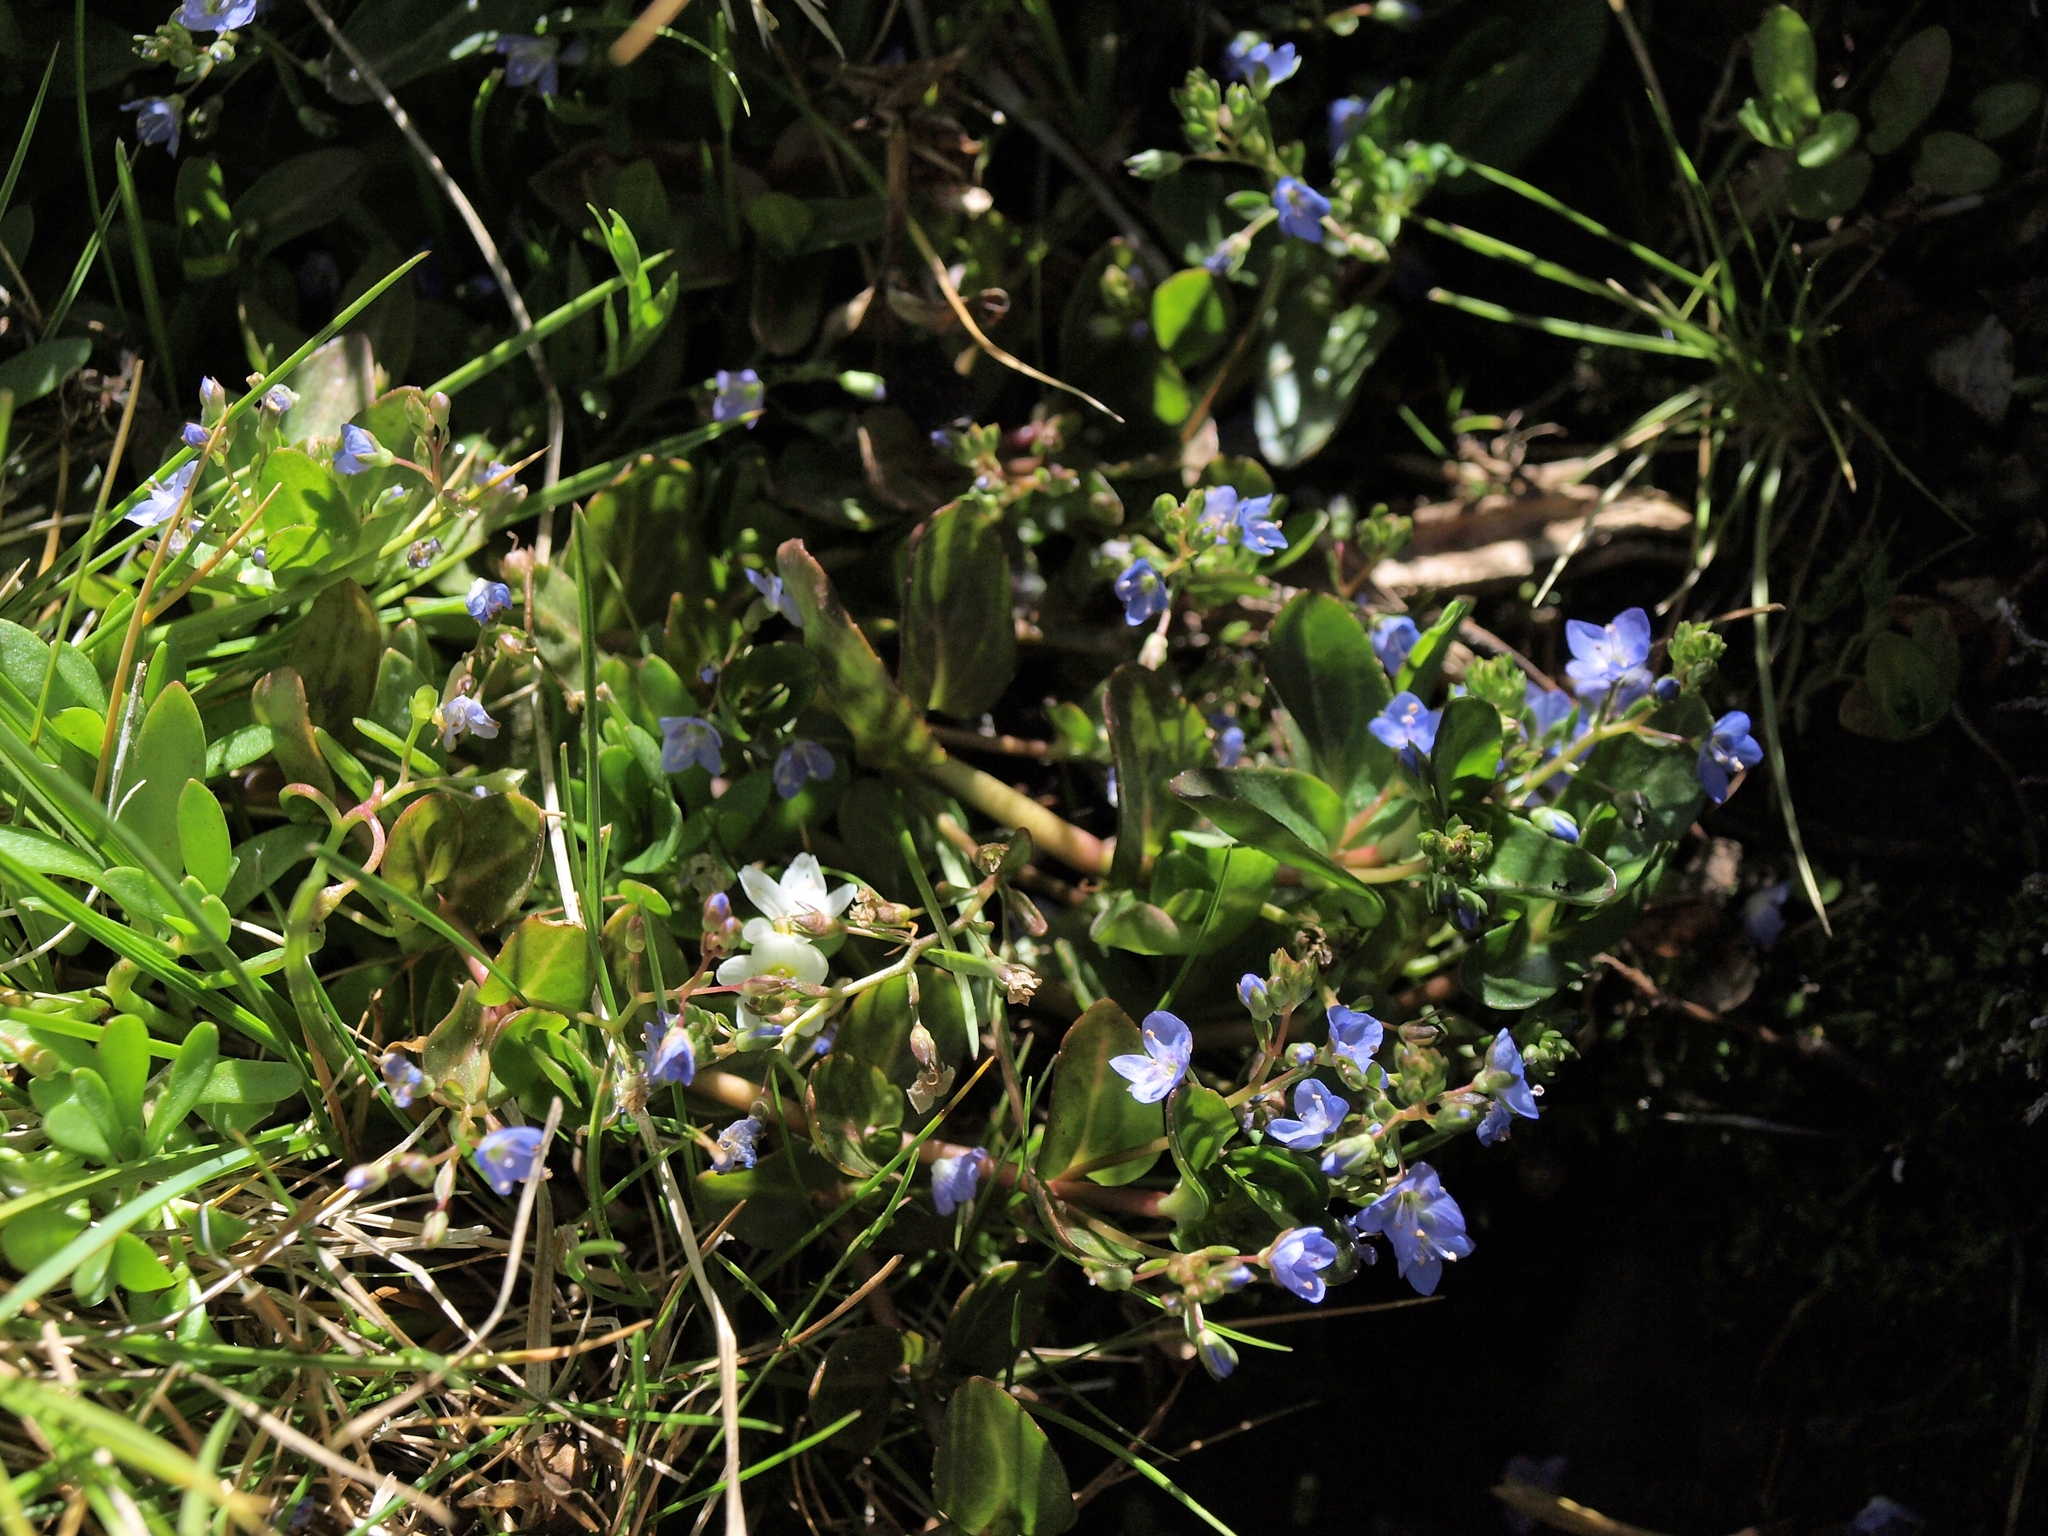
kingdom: Plantae
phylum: Tracheophyta
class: Magnoliopsida
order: Lamiales
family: Plantaginaceae
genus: Veronica
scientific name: Veronica americana
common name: American brooklime
